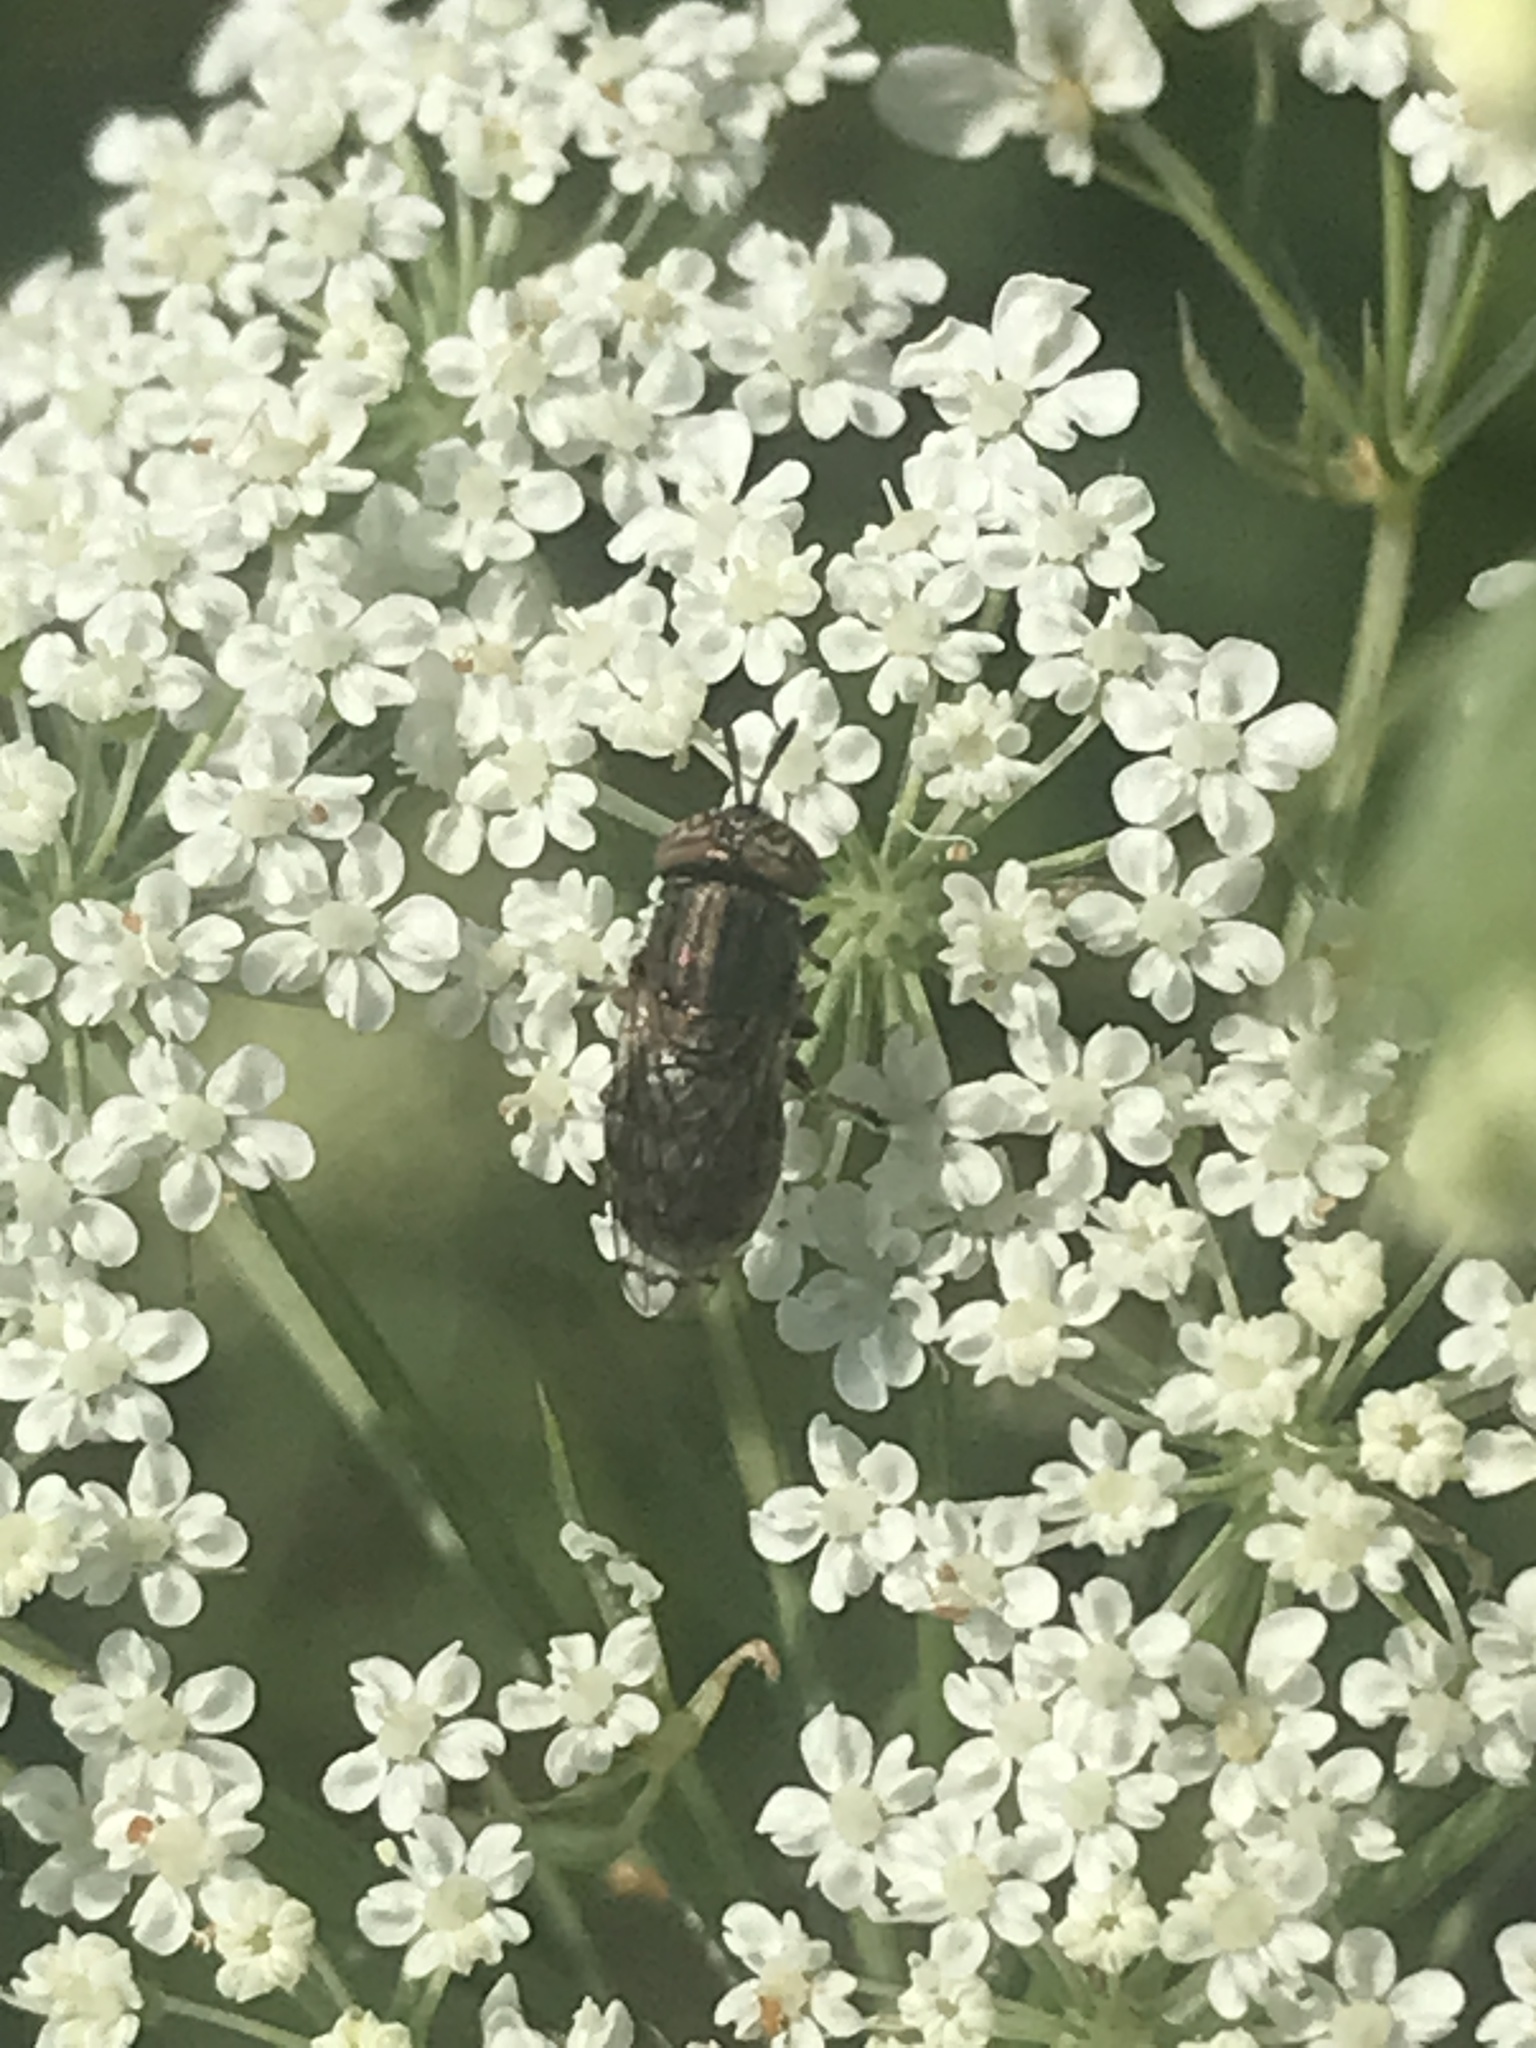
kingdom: Animalia
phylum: Arthropoda
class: Insecta
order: Diptera
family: Syrphidae
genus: Orthonevra
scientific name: Orthonevra nitida
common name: Wavy mucksucker
